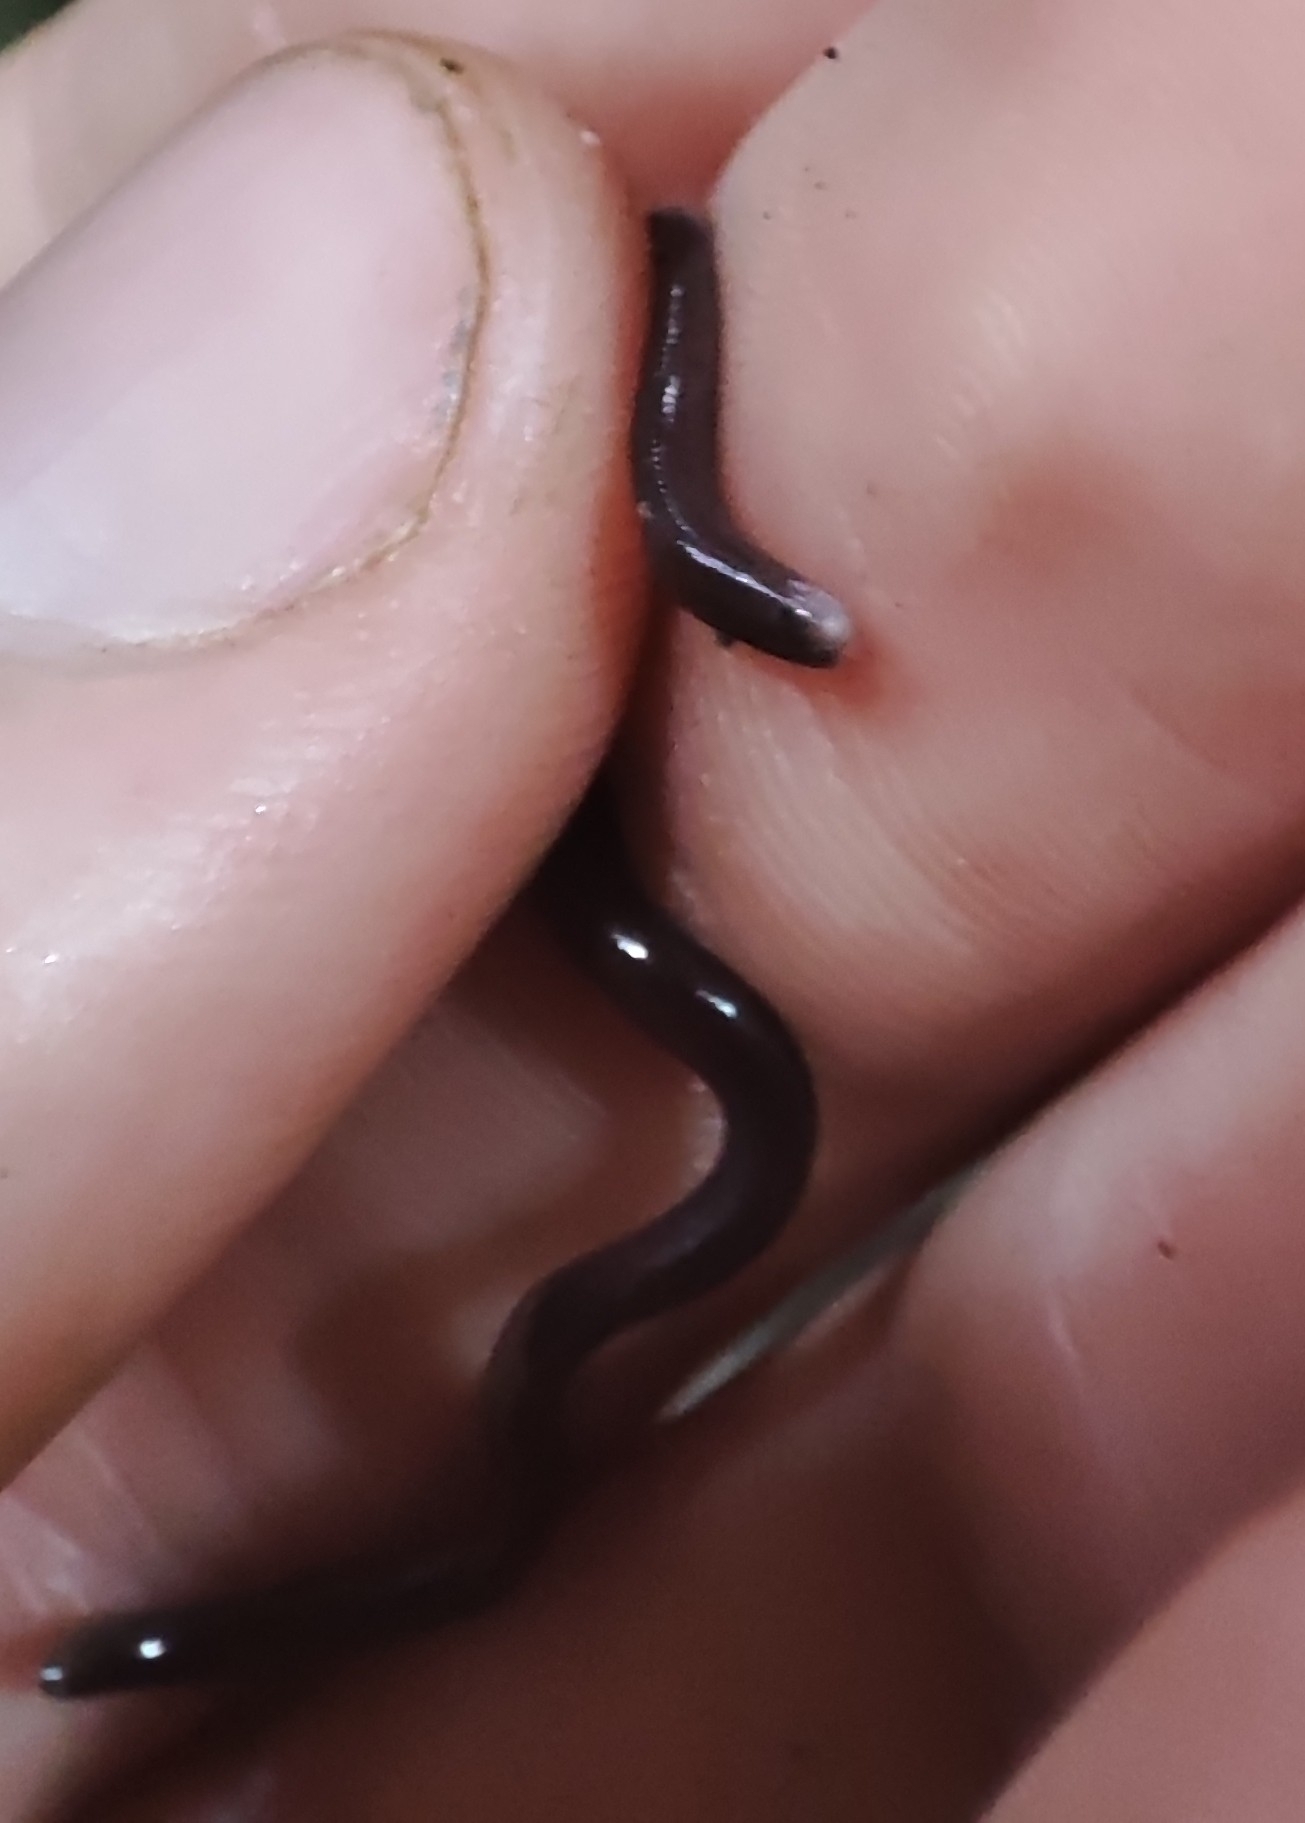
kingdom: Animalia
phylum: Chordata
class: Squamata
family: Typhlopidae
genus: Indotyphlops
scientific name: Indotyphlops braminus
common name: Brahminy blindsnake
